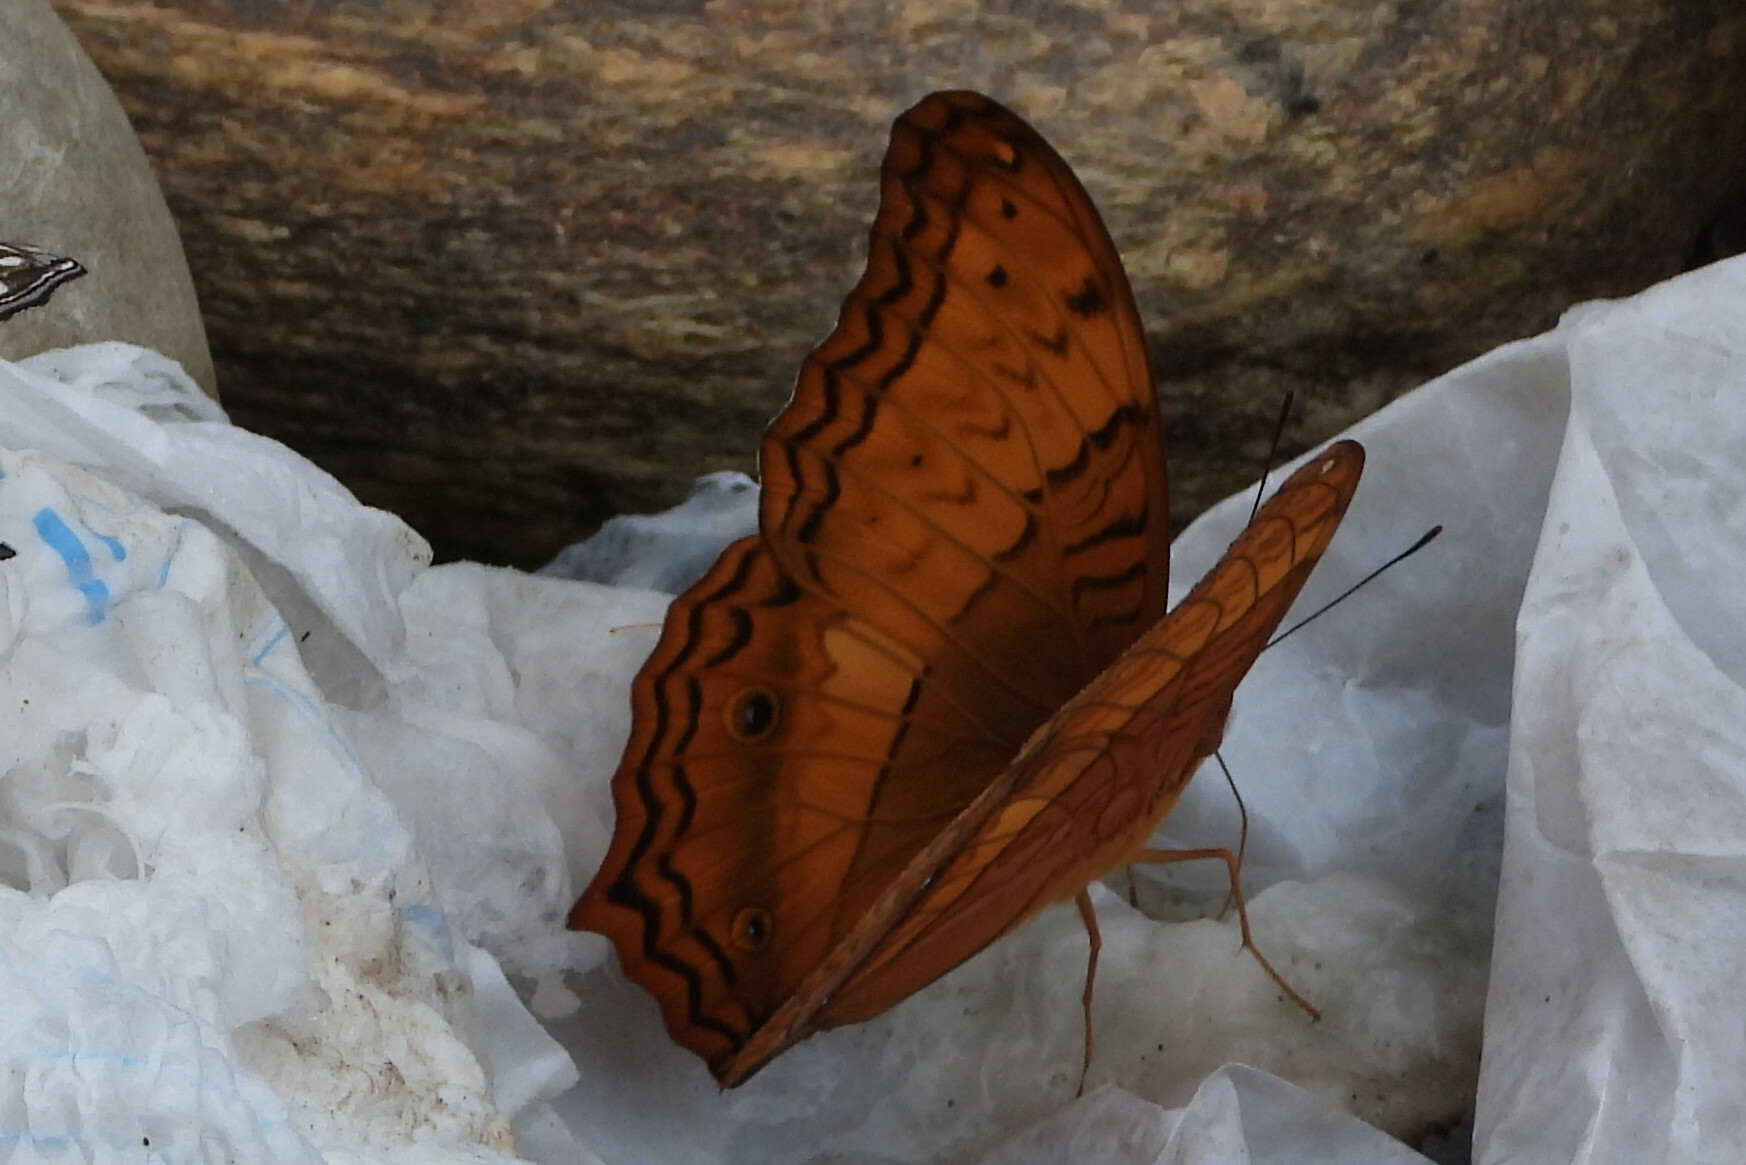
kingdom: Animalia
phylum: Arthropoda
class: Insecta
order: Lepidoptera
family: Nymphalidae
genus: Vindula
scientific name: Vindula erota
